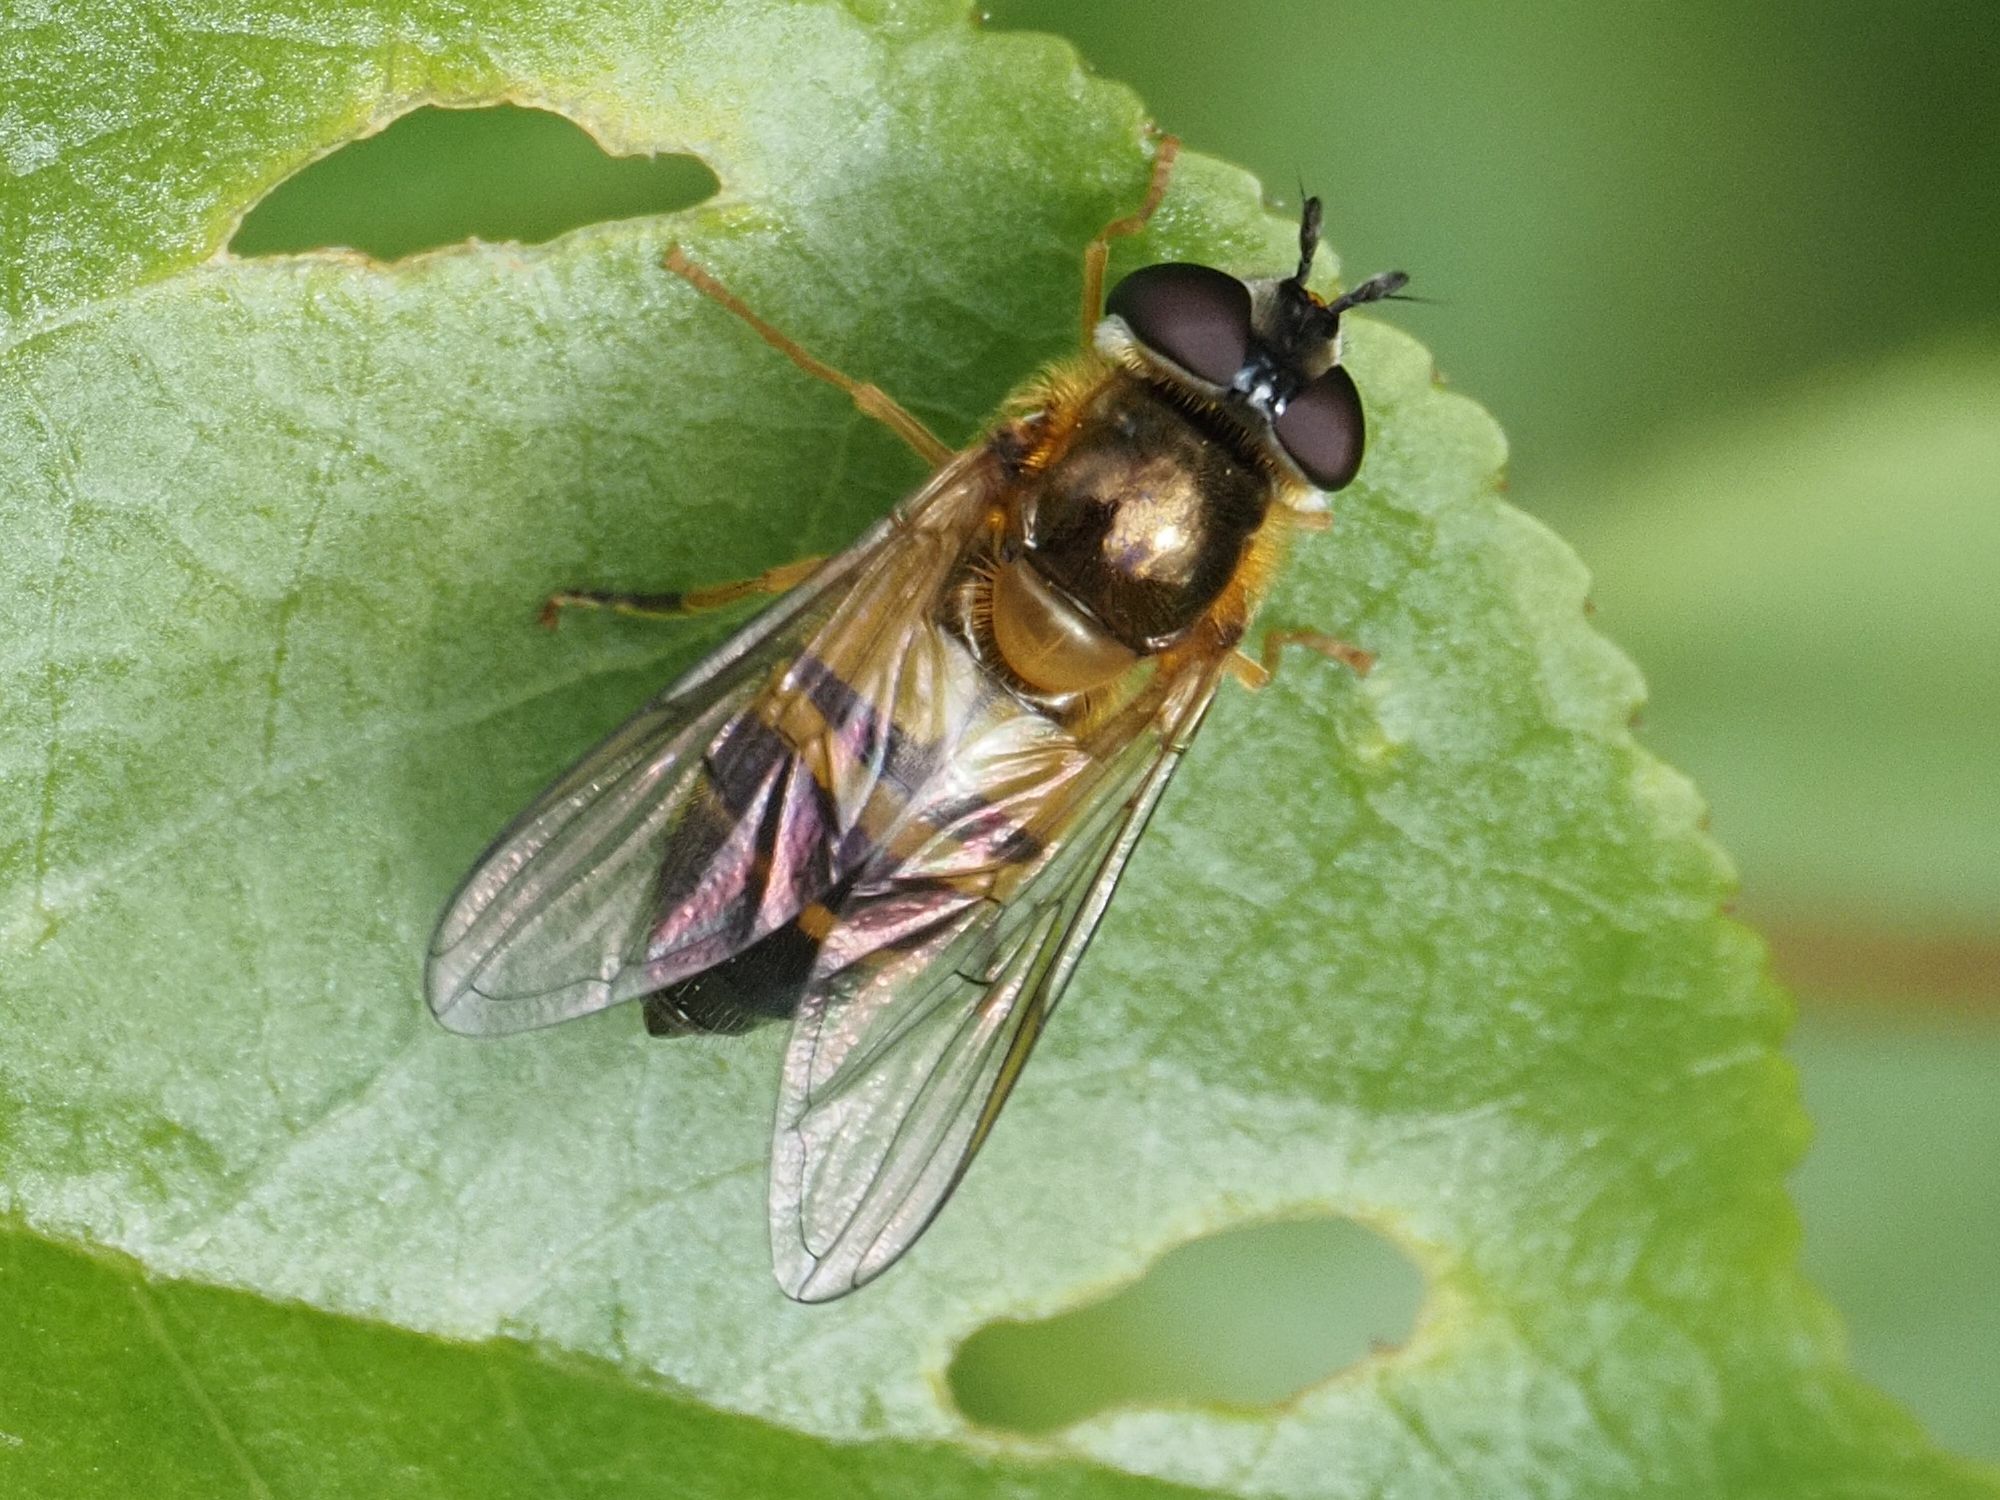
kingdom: Animalia
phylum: Arthropoda
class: Insecta
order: Diptera
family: Syrphidae
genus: Epistrophe
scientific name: Epistrophe eligans
